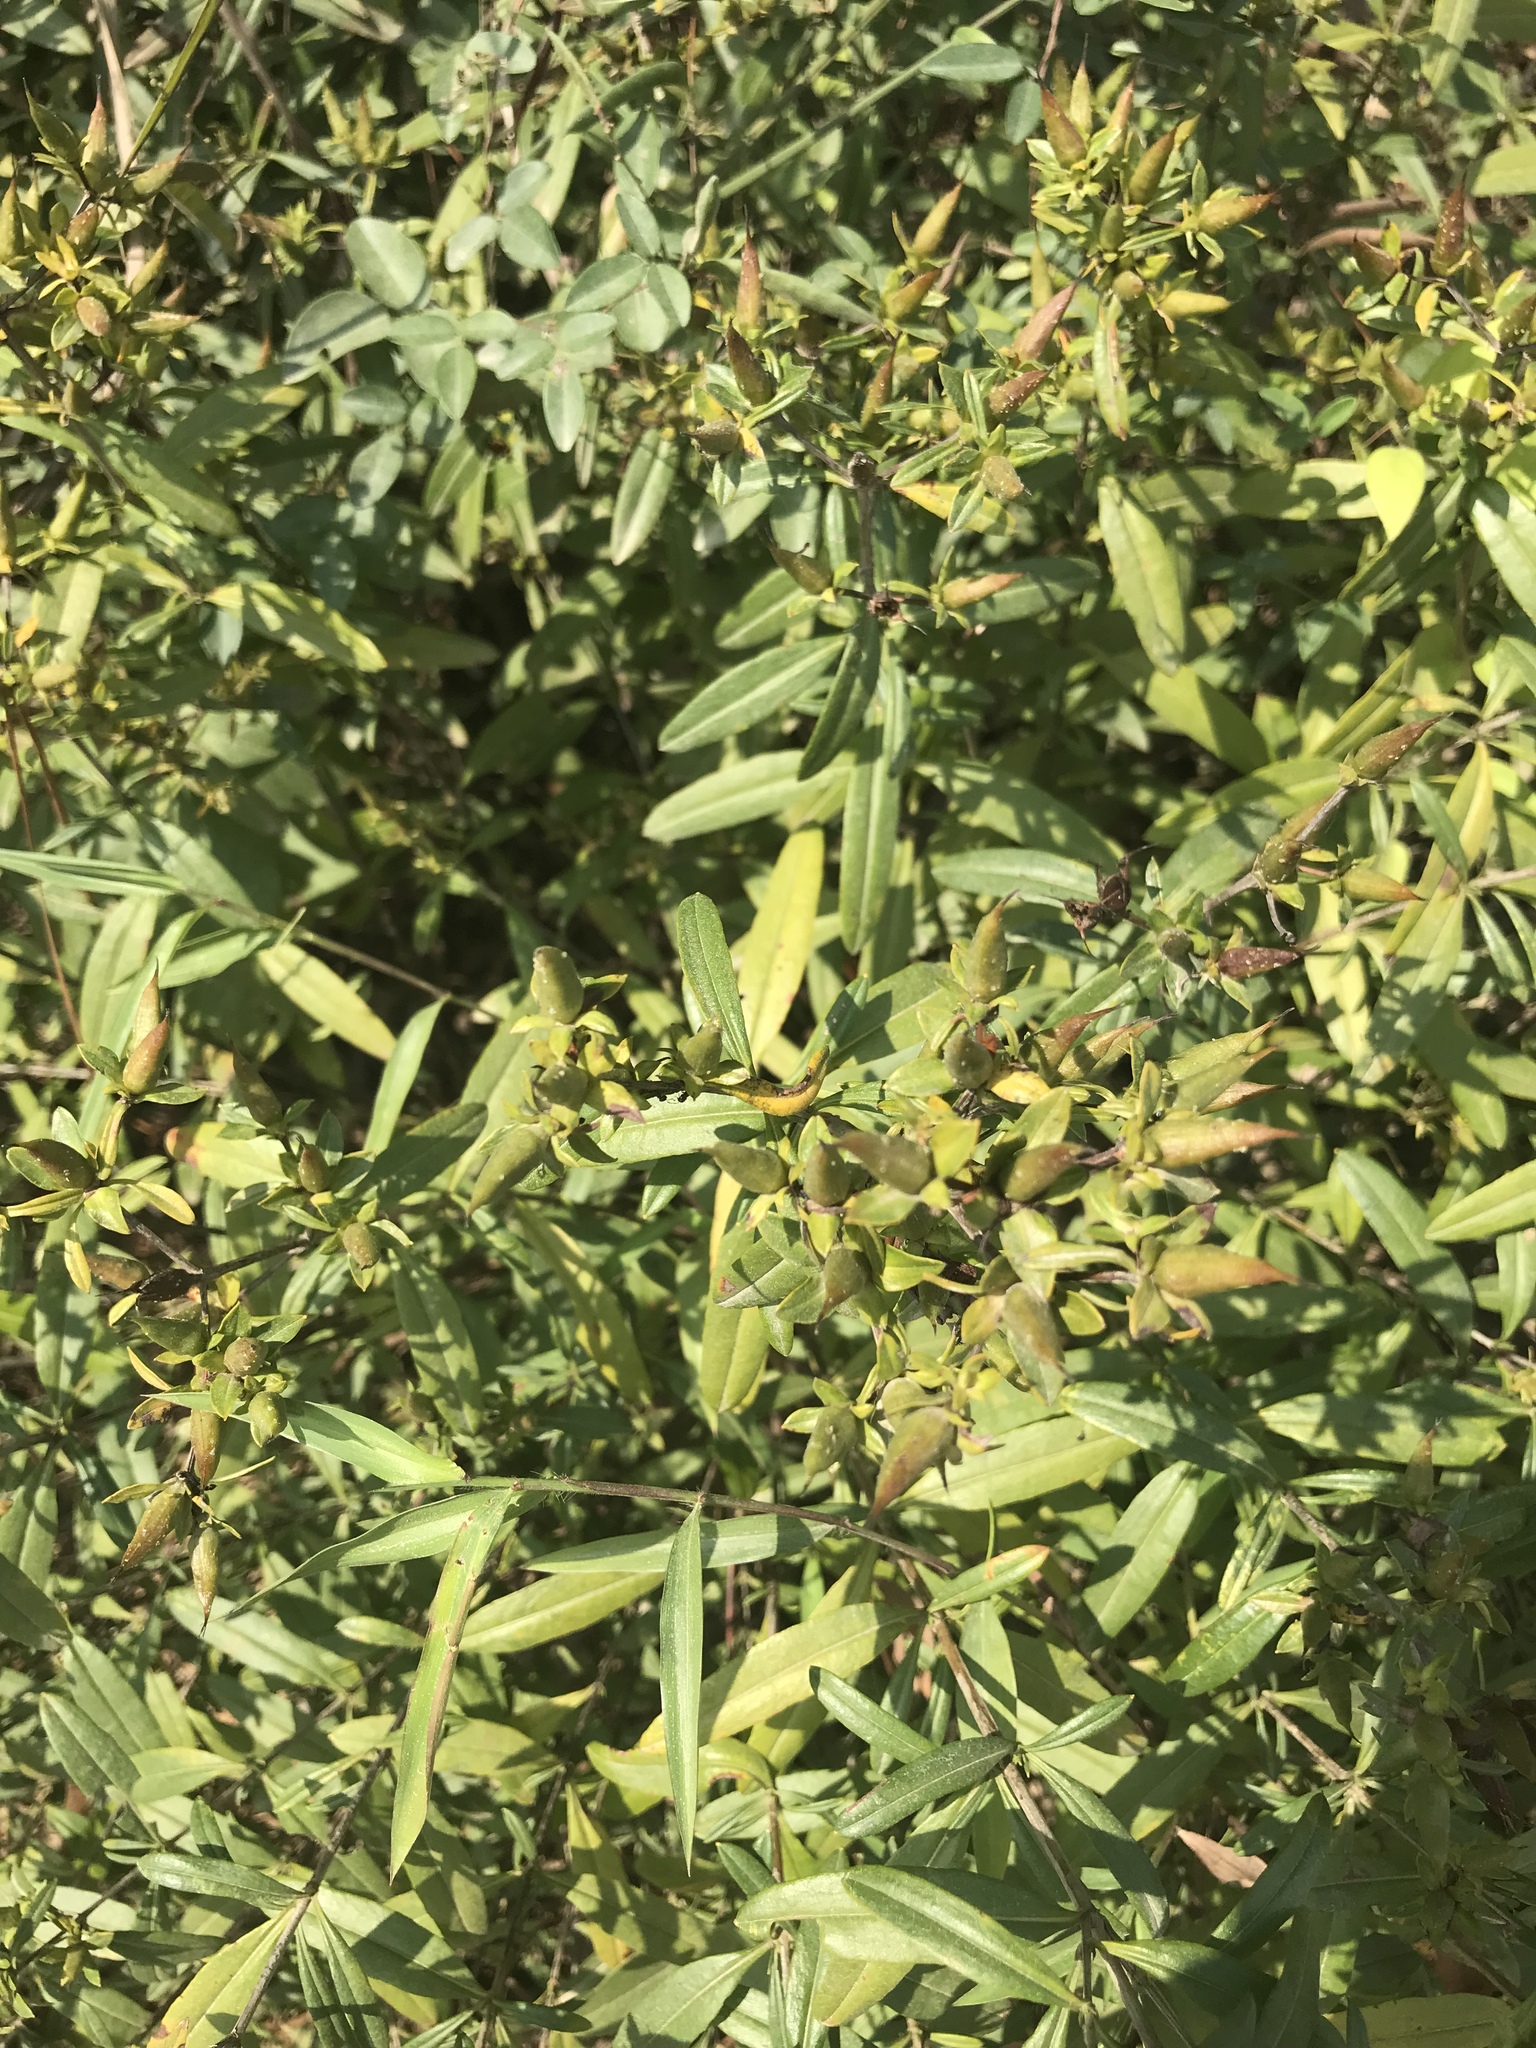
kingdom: Plantae
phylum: Tracheophyta
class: Magnoliopsida
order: Malpighiales
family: Hypericaceae
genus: Hypericum
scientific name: Hypericum prolificum
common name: Shrubby st. john's-wort
